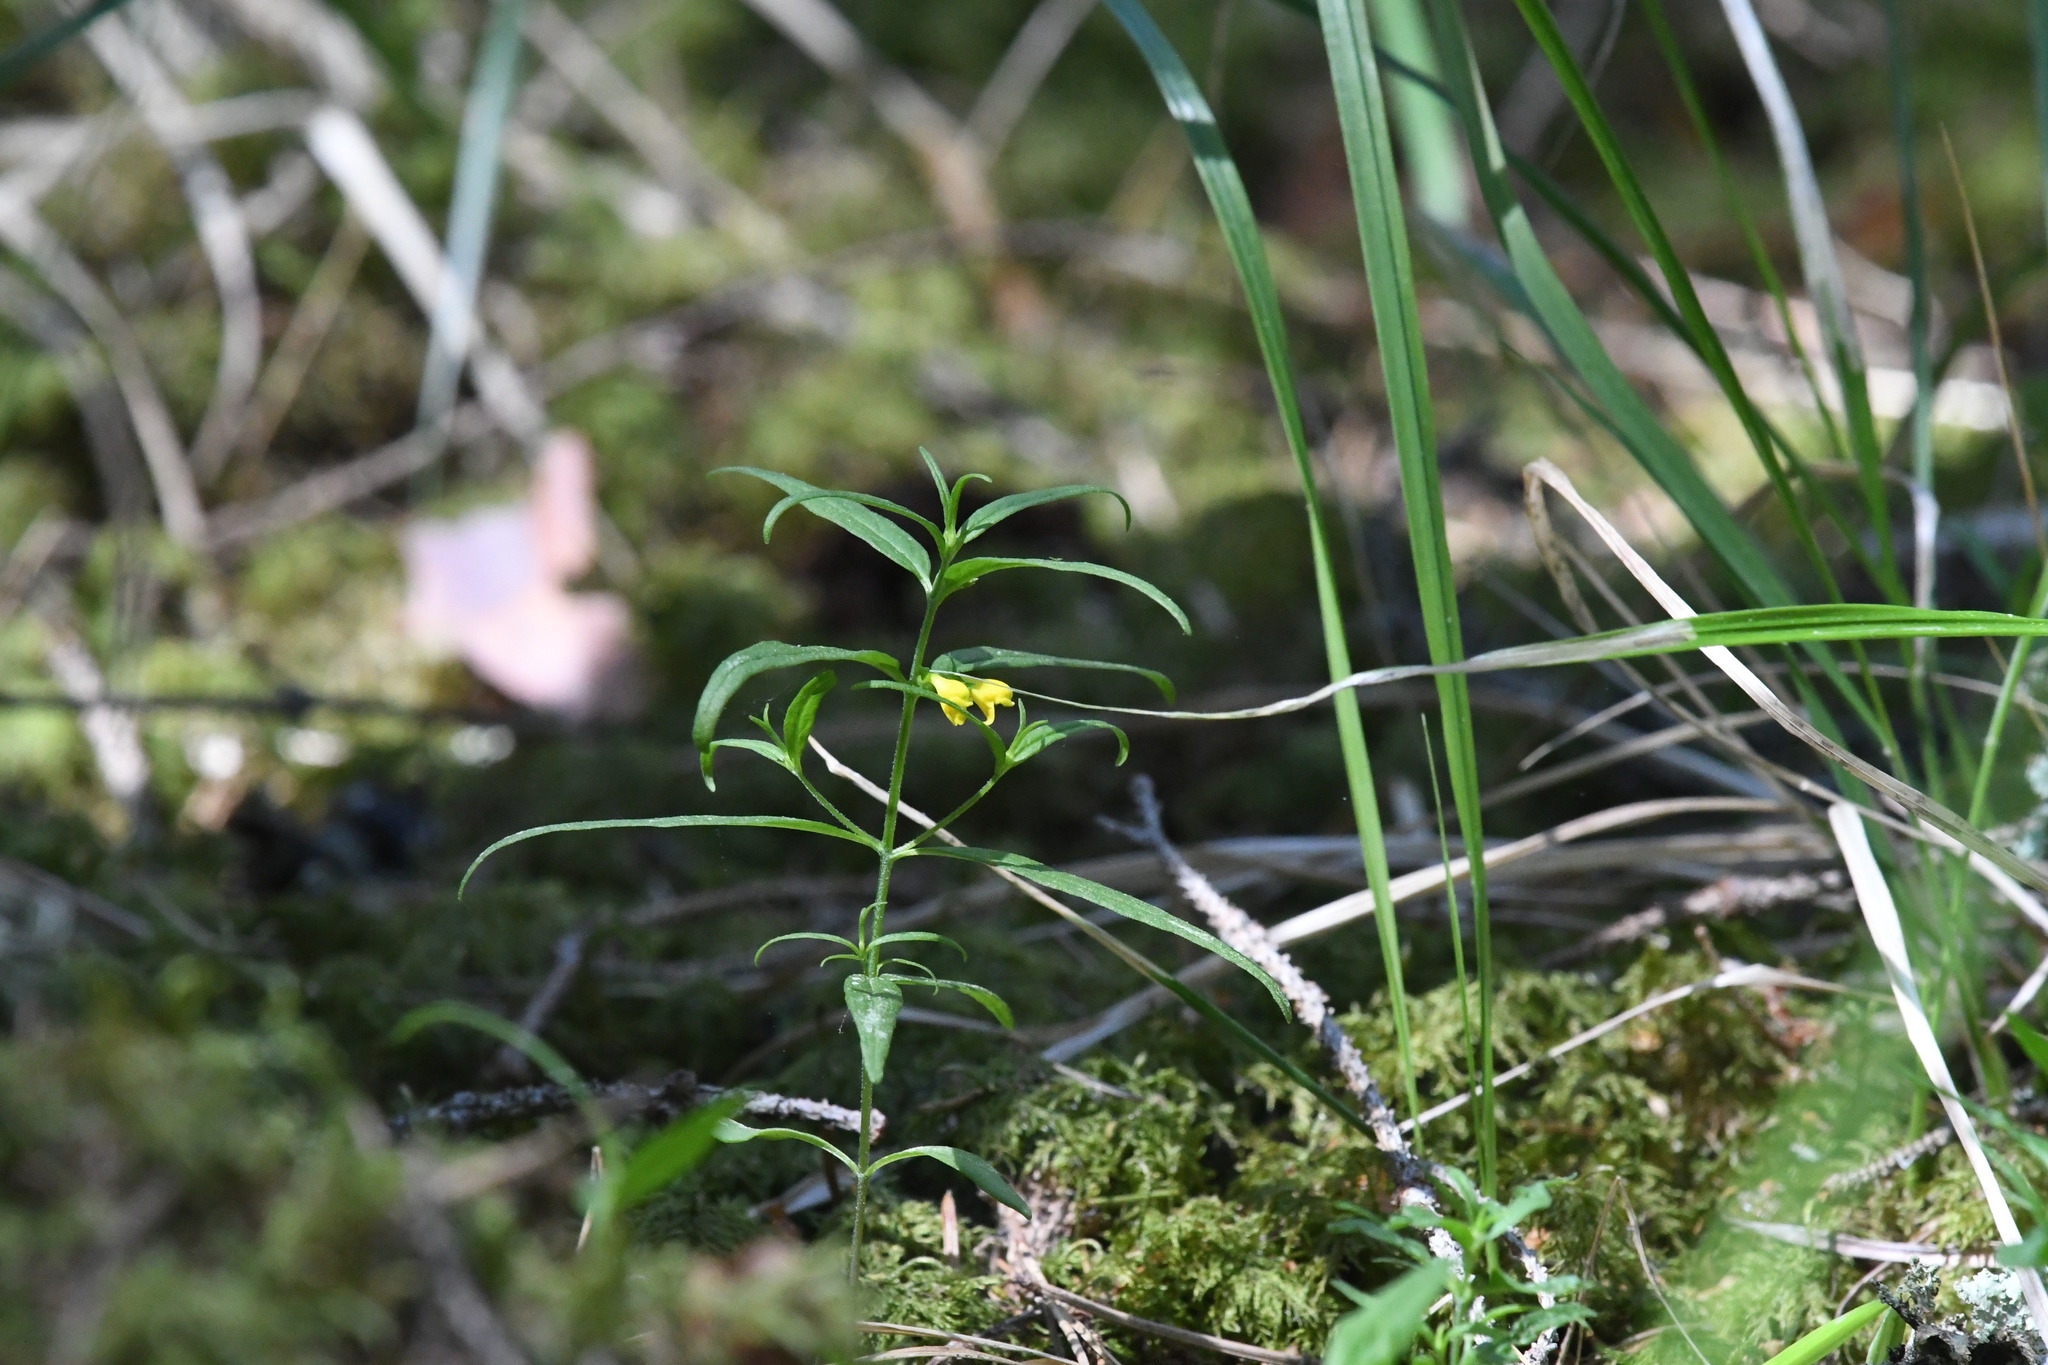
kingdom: Plantae
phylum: Tracheophyta
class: Magnoliopsida
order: Lamiales
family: Orobanchaceae
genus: Melampyrum
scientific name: Melampyrum sylvaticum
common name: Small cow-wheat
